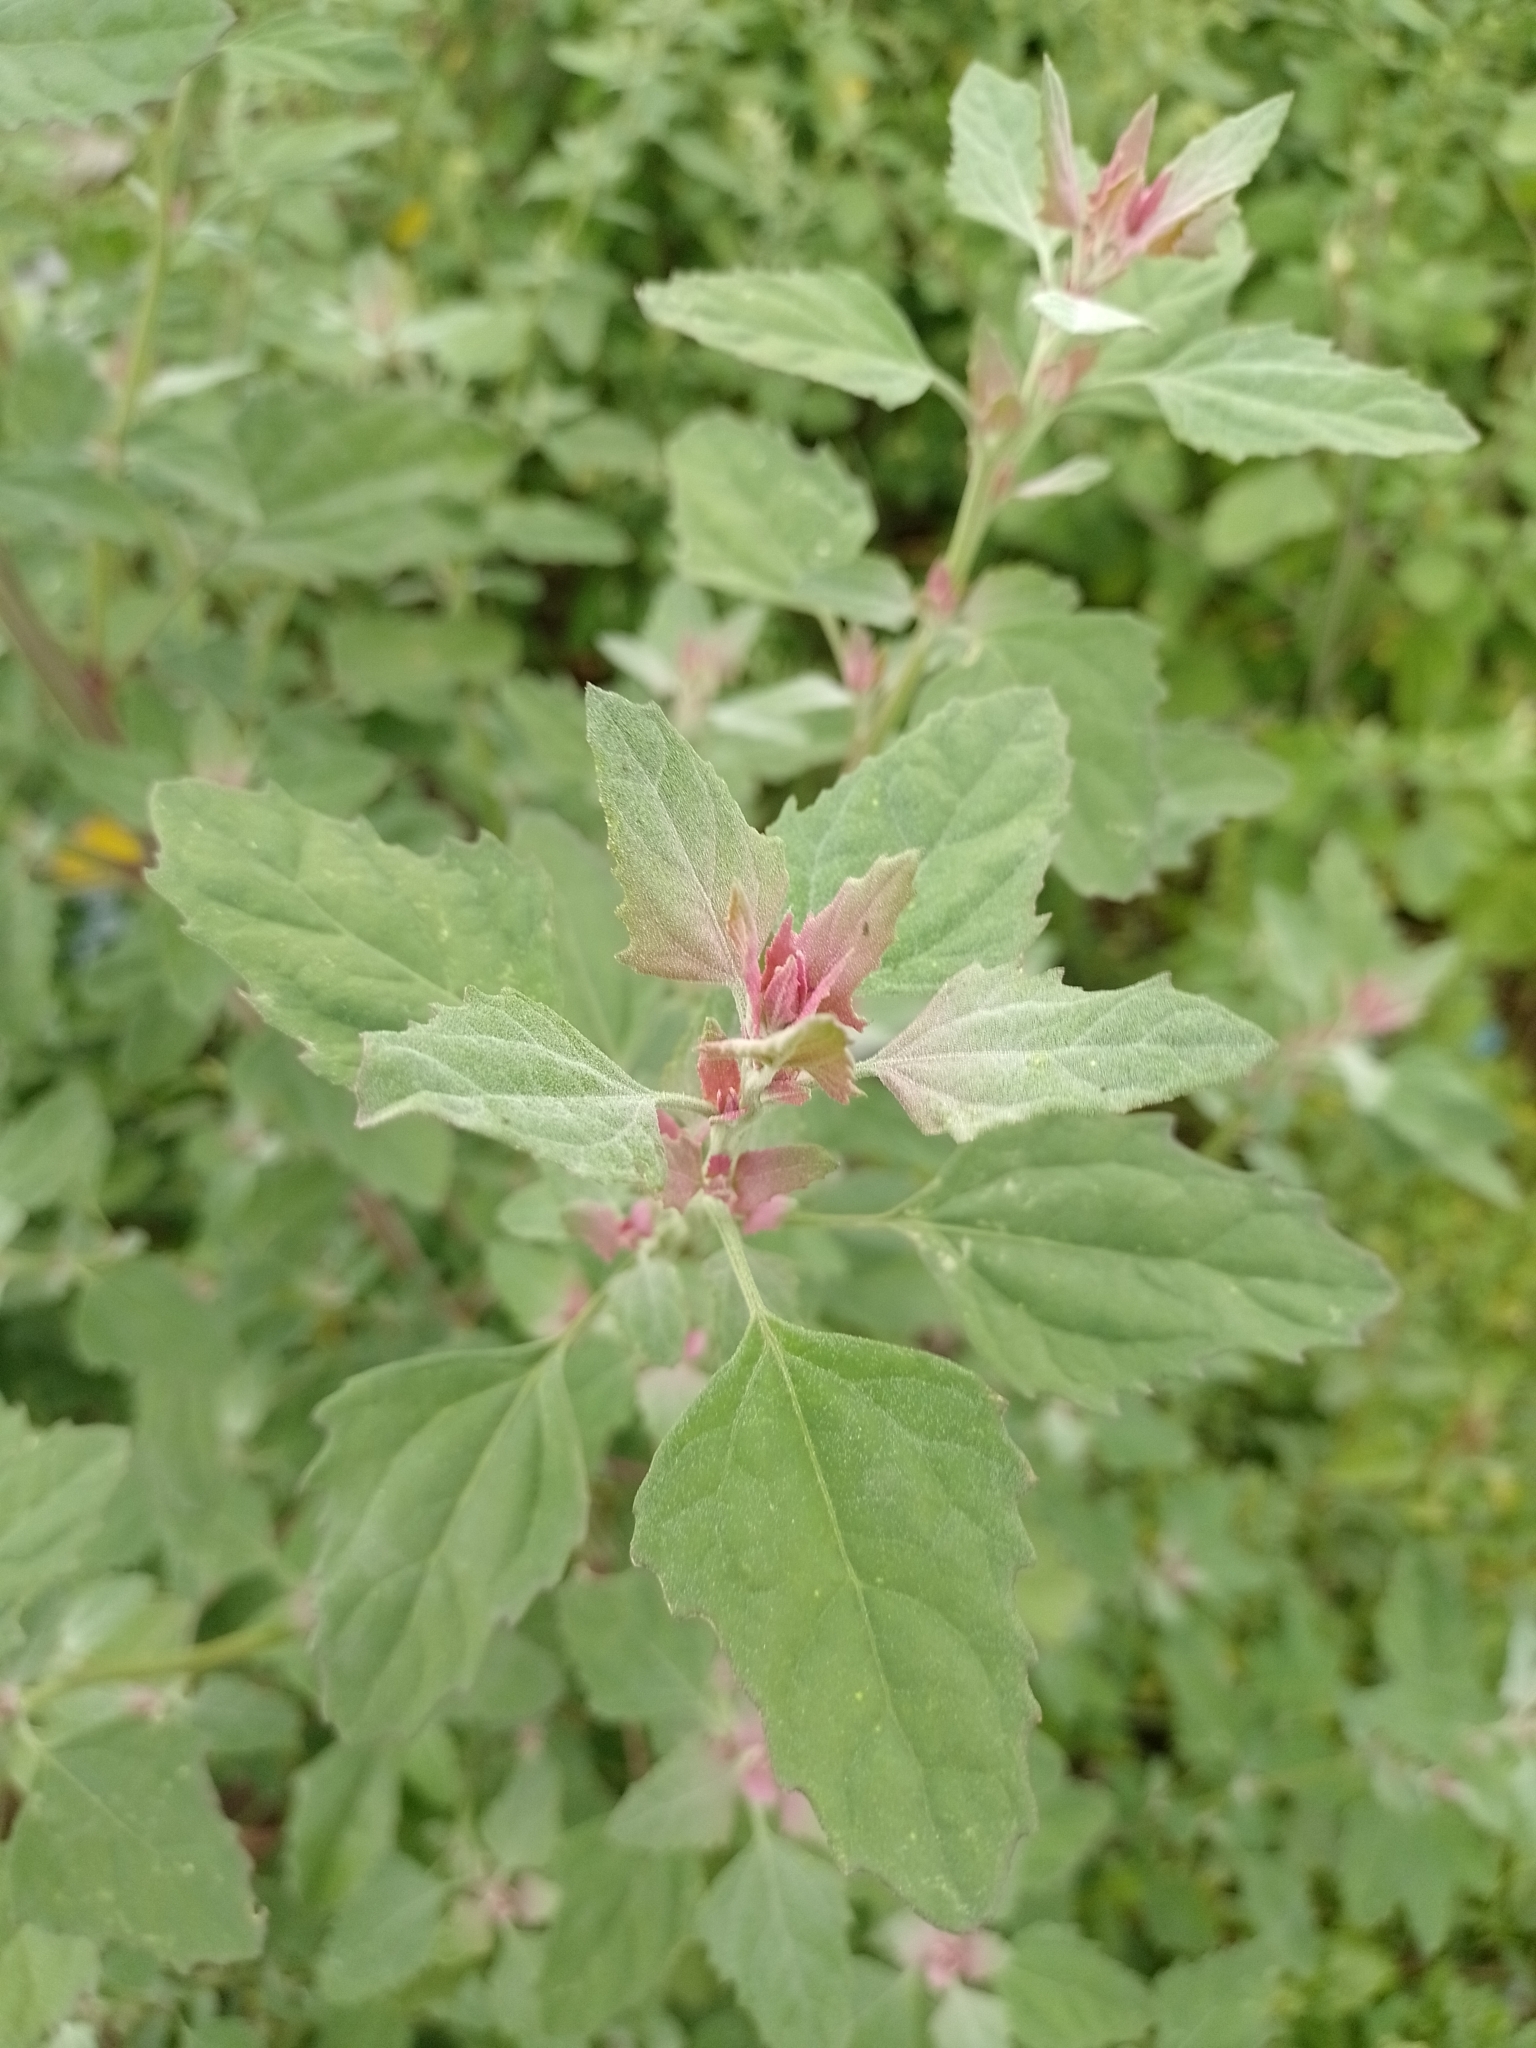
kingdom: Plantae
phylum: Tracheophyta
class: Magnoliopsida
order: Caryophyllales
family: Amaranthaceae
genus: Chenopodium
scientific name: Chenopodium album
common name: Fat-hen
